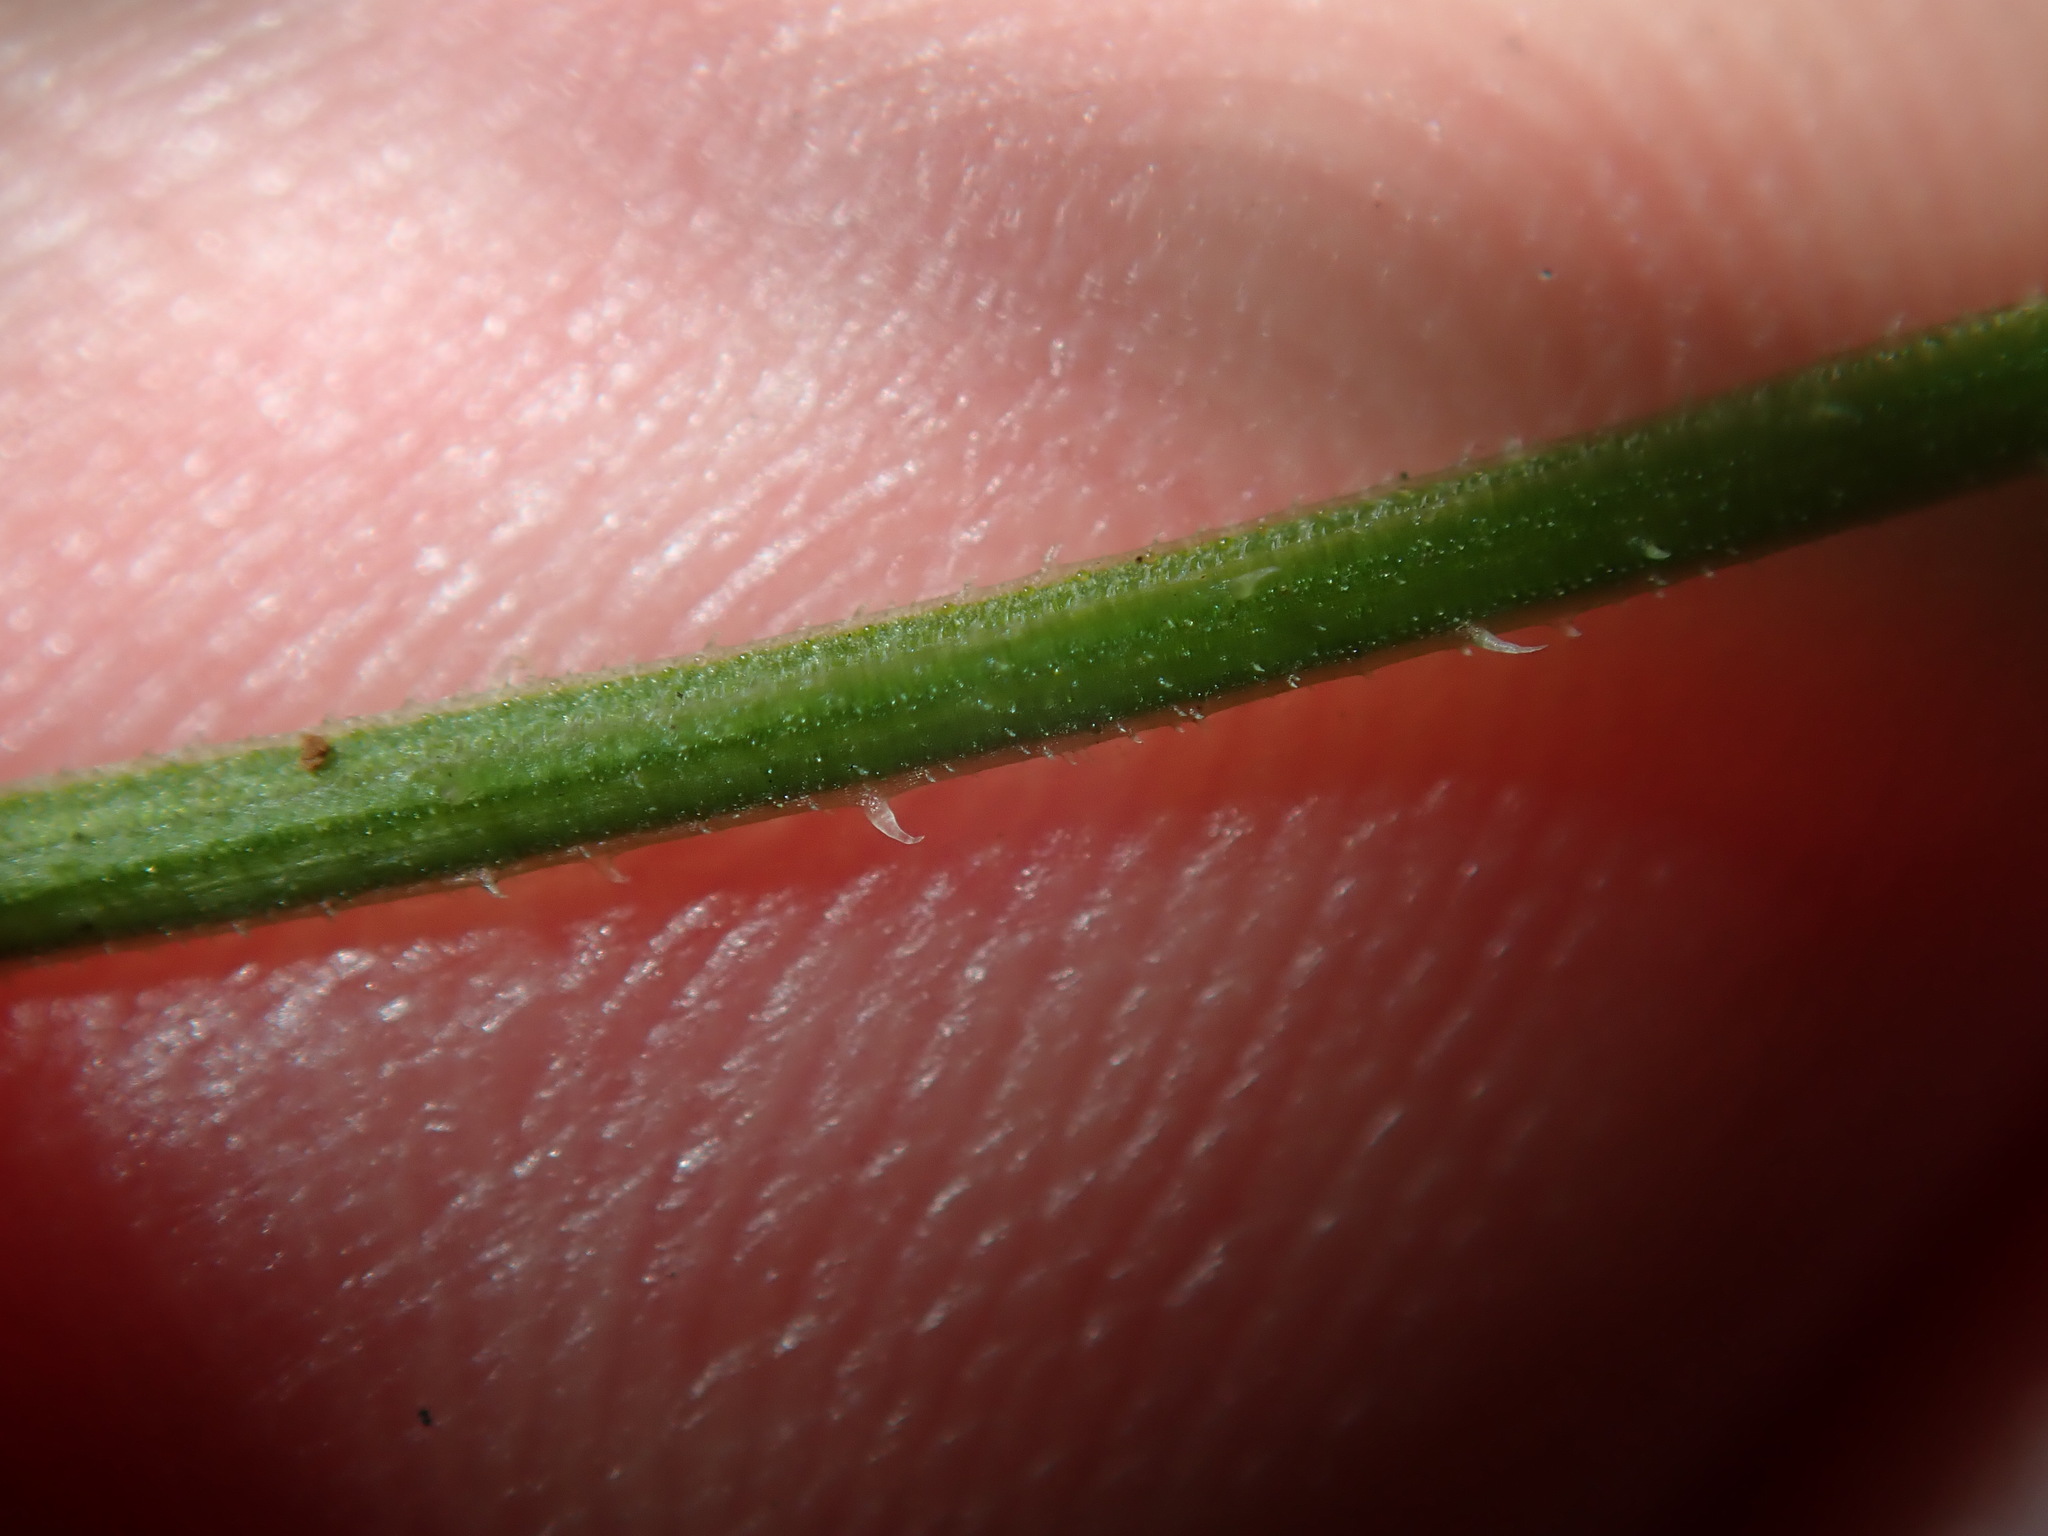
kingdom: Plantae
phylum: Tracheophyta
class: Magnoliopsida
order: Lamiales
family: Lamiaceae
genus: Mentha
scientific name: Mentha diemenica
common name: Wild mint
